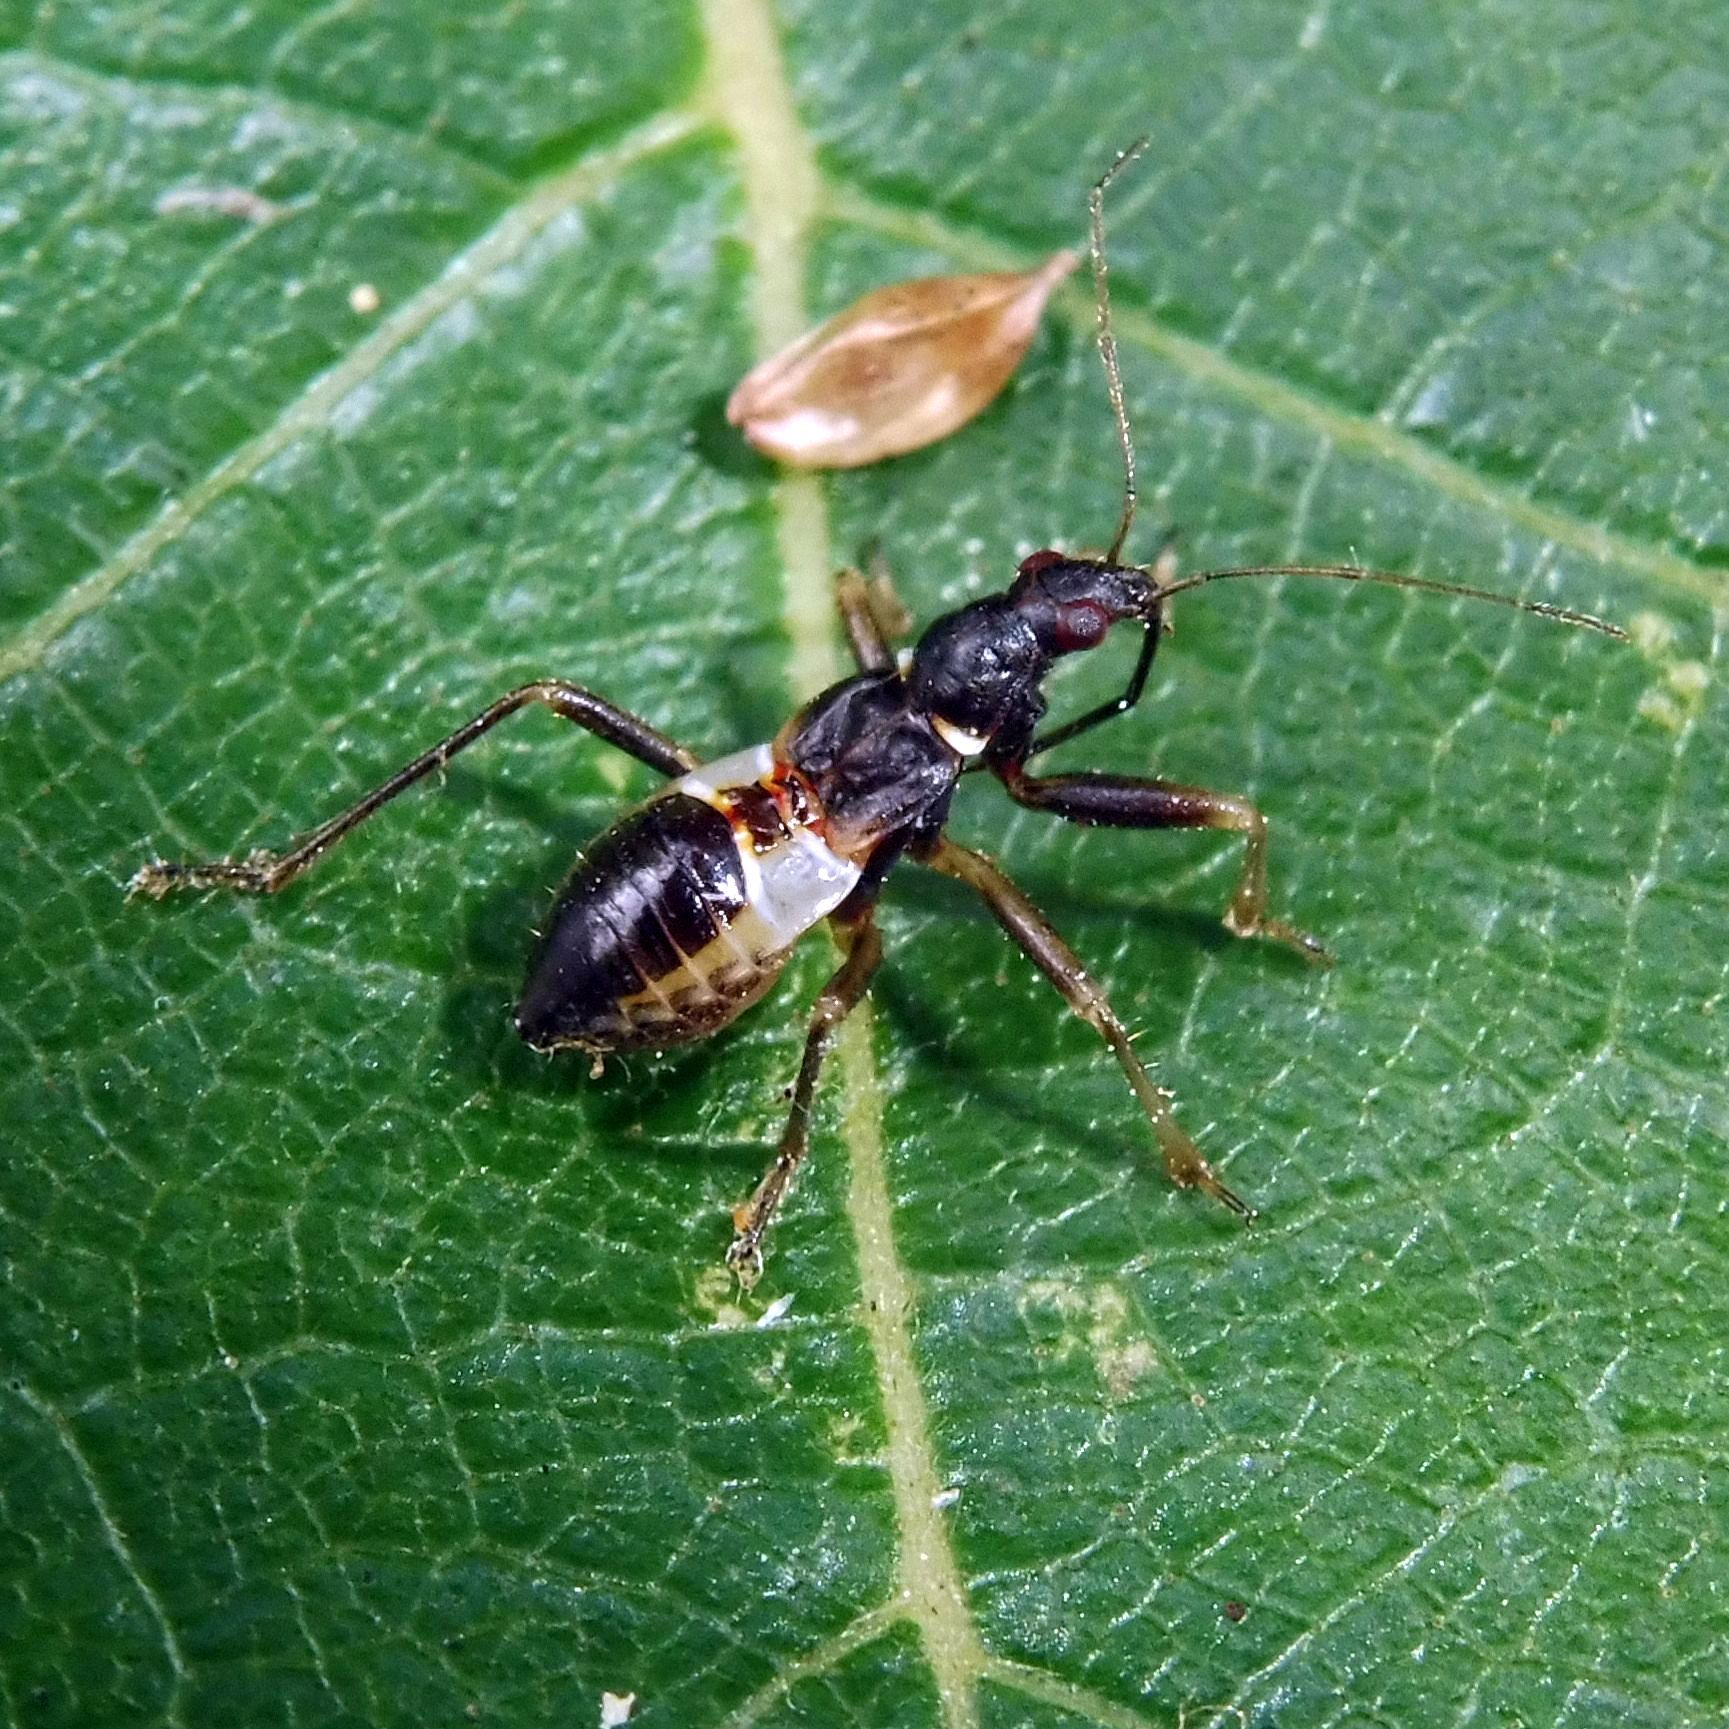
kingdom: Animalia
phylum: Arthropoda
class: Insecta
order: Hemiptera
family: Nabidae
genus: Himacerus
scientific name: Himacerus mirmicoides
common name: Ant damsel bug
